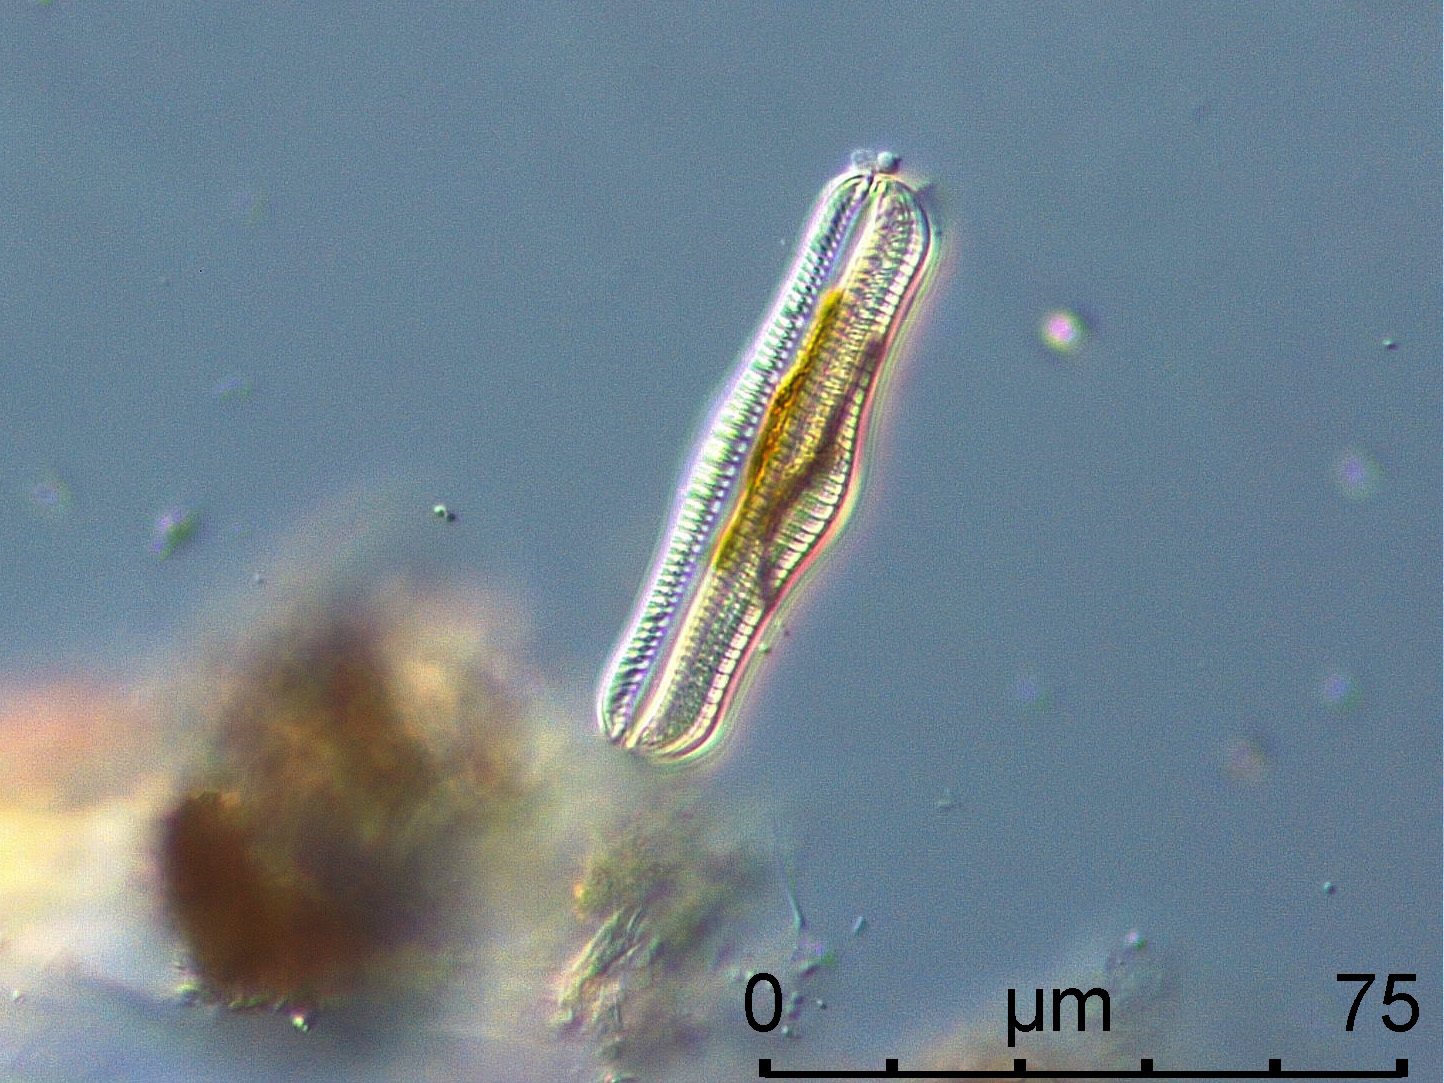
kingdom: Chromista
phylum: Ochrophyta
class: Bacillariophyceae
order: Rhopalodiales
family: Rhopalodiaceae
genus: Epithemia
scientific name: Epithemia gibba
